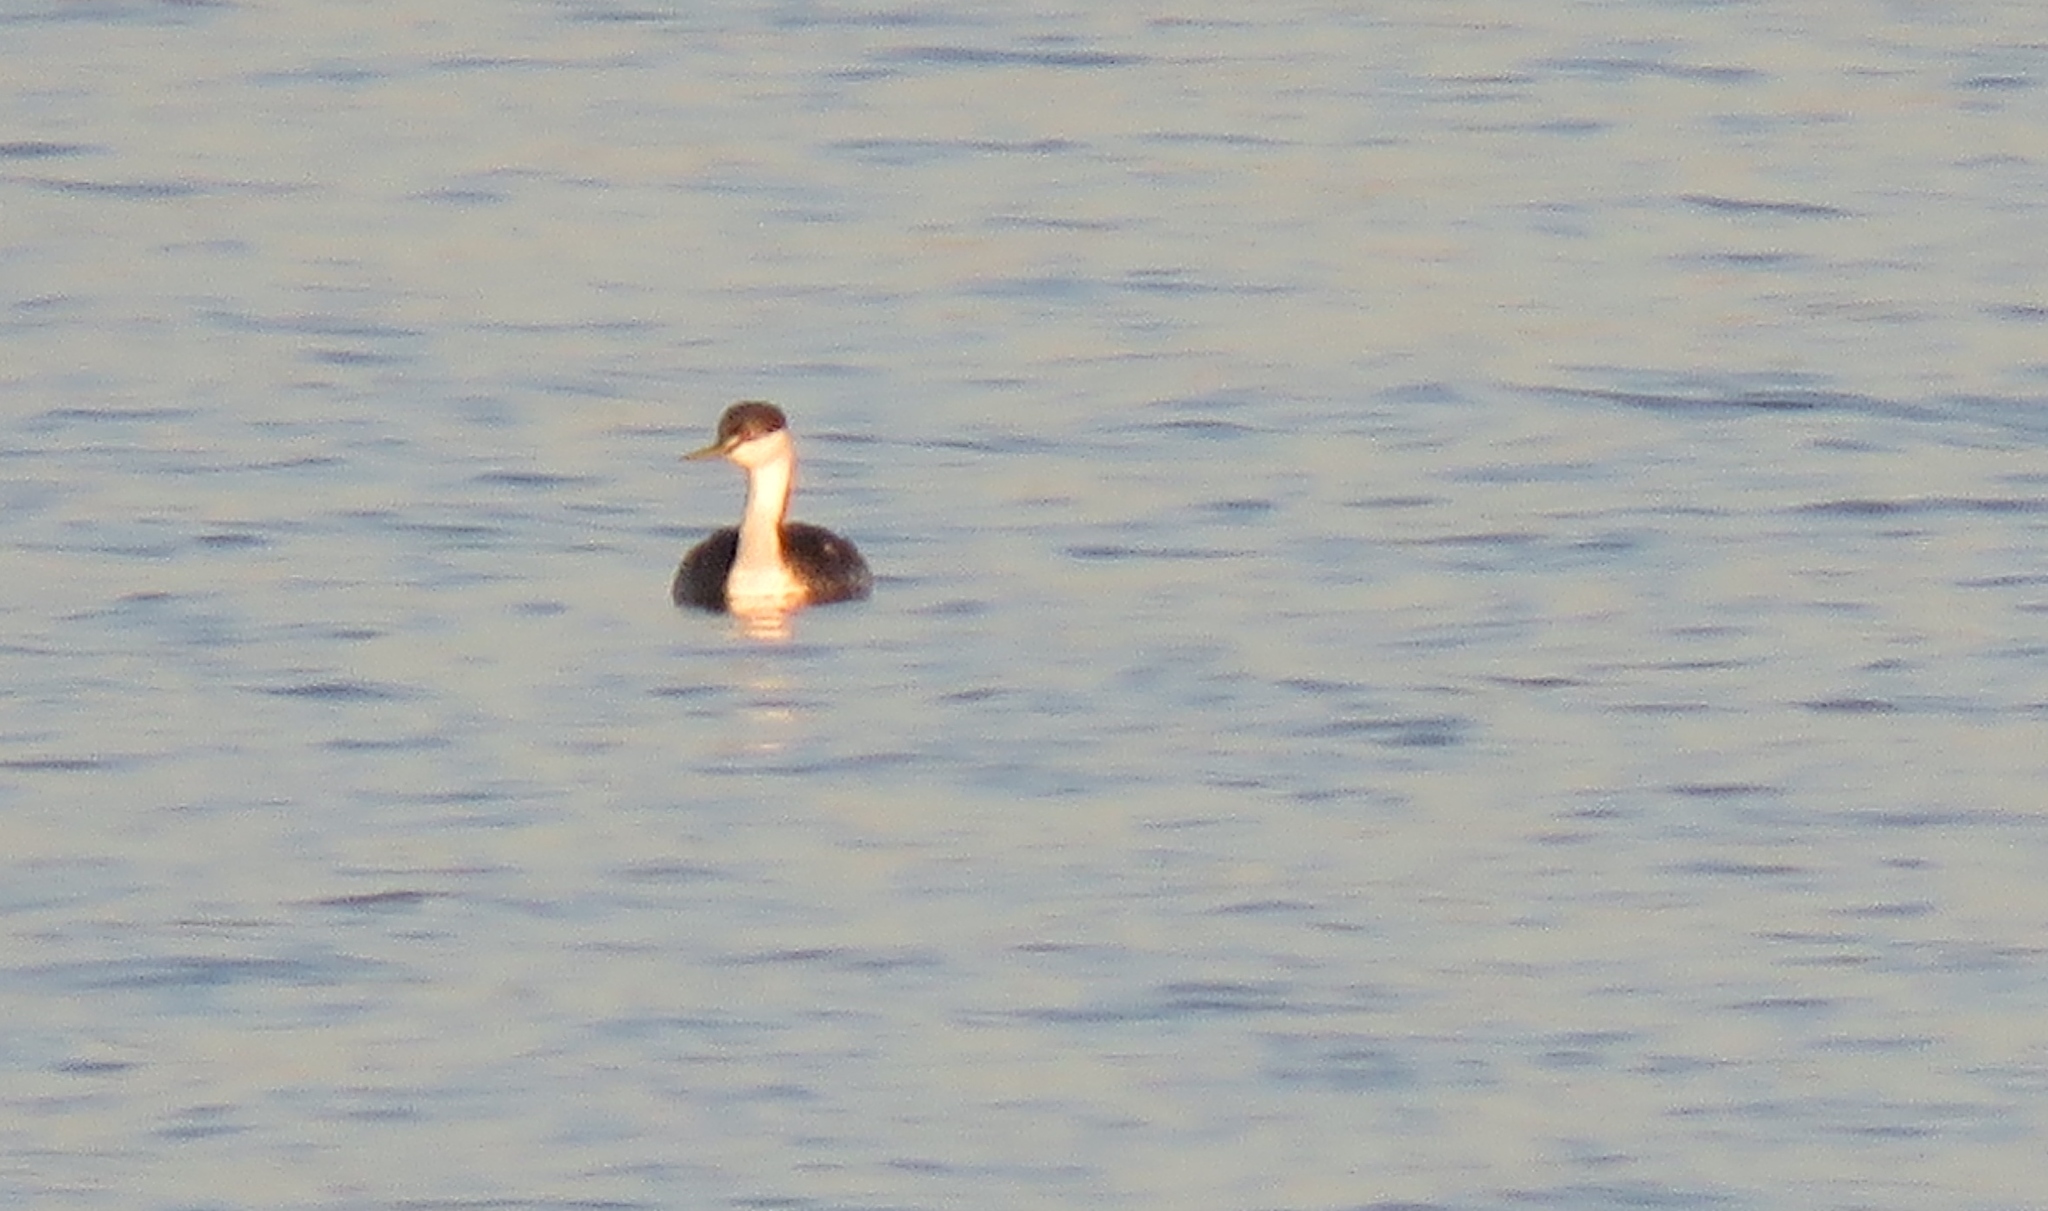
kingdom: Animalia
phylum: Chordata
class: Aves
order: Podicipediformes
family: Podicipedidae
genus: Aechmophorus
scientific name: Aechmophorus occidentalis
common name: Western grebe
